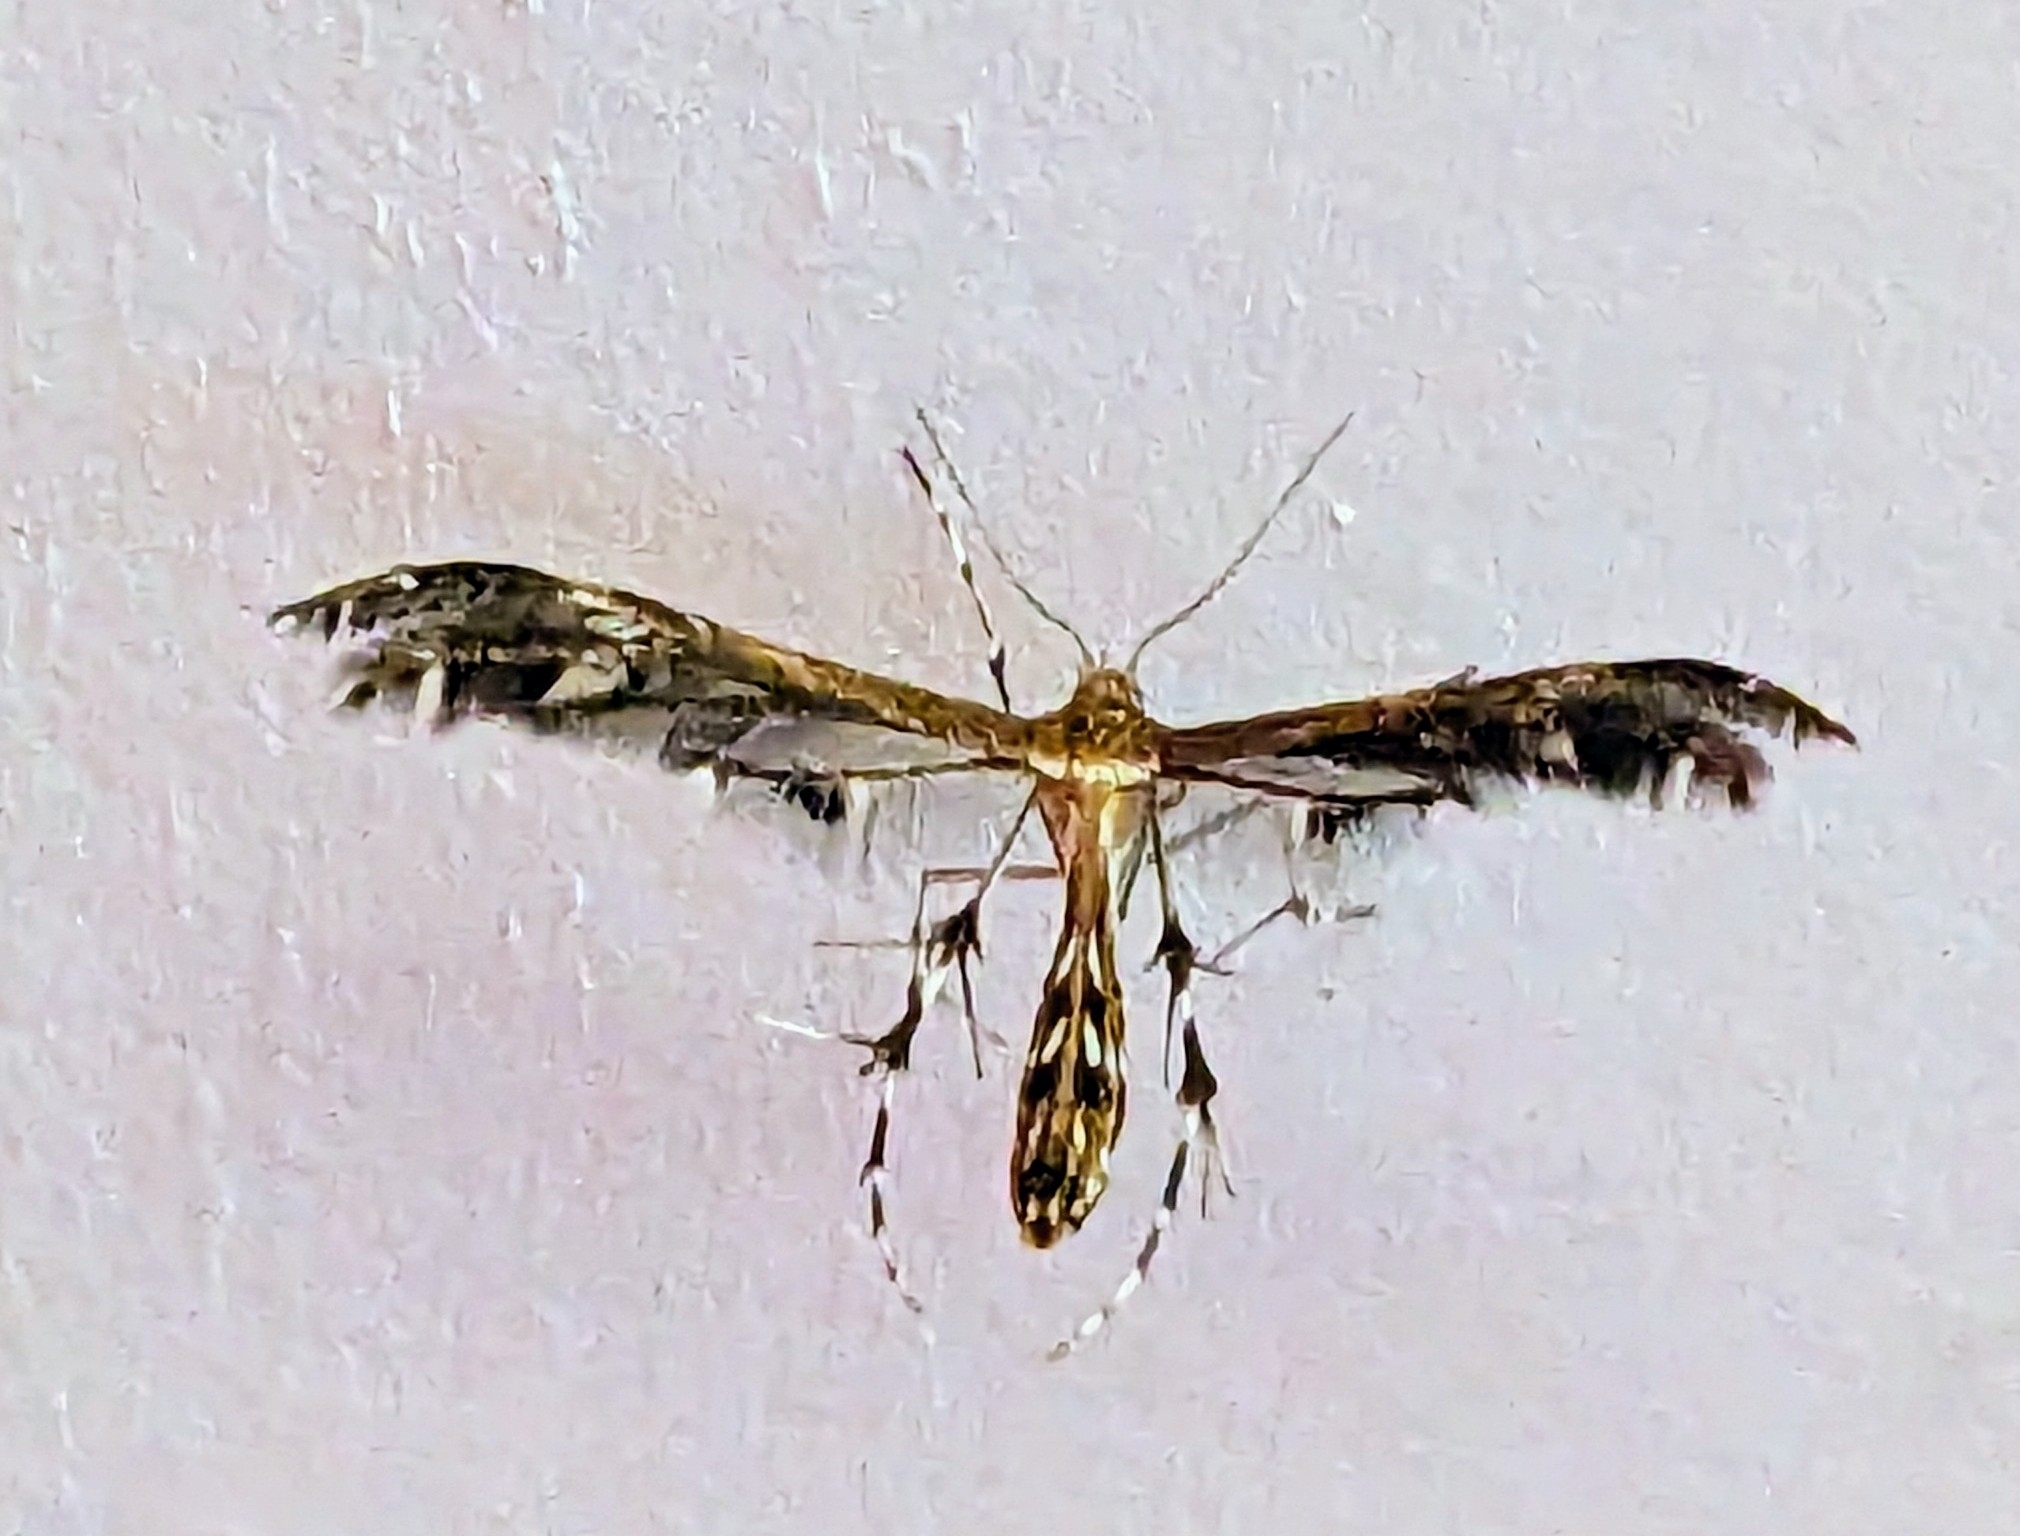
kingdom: Animalia
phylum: Arthropoda
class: Insecta
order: Lepidoptera
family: Pterophoridae
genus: Dejongia
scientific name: Dejongia lobidactylus
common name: Lobed plume moth
